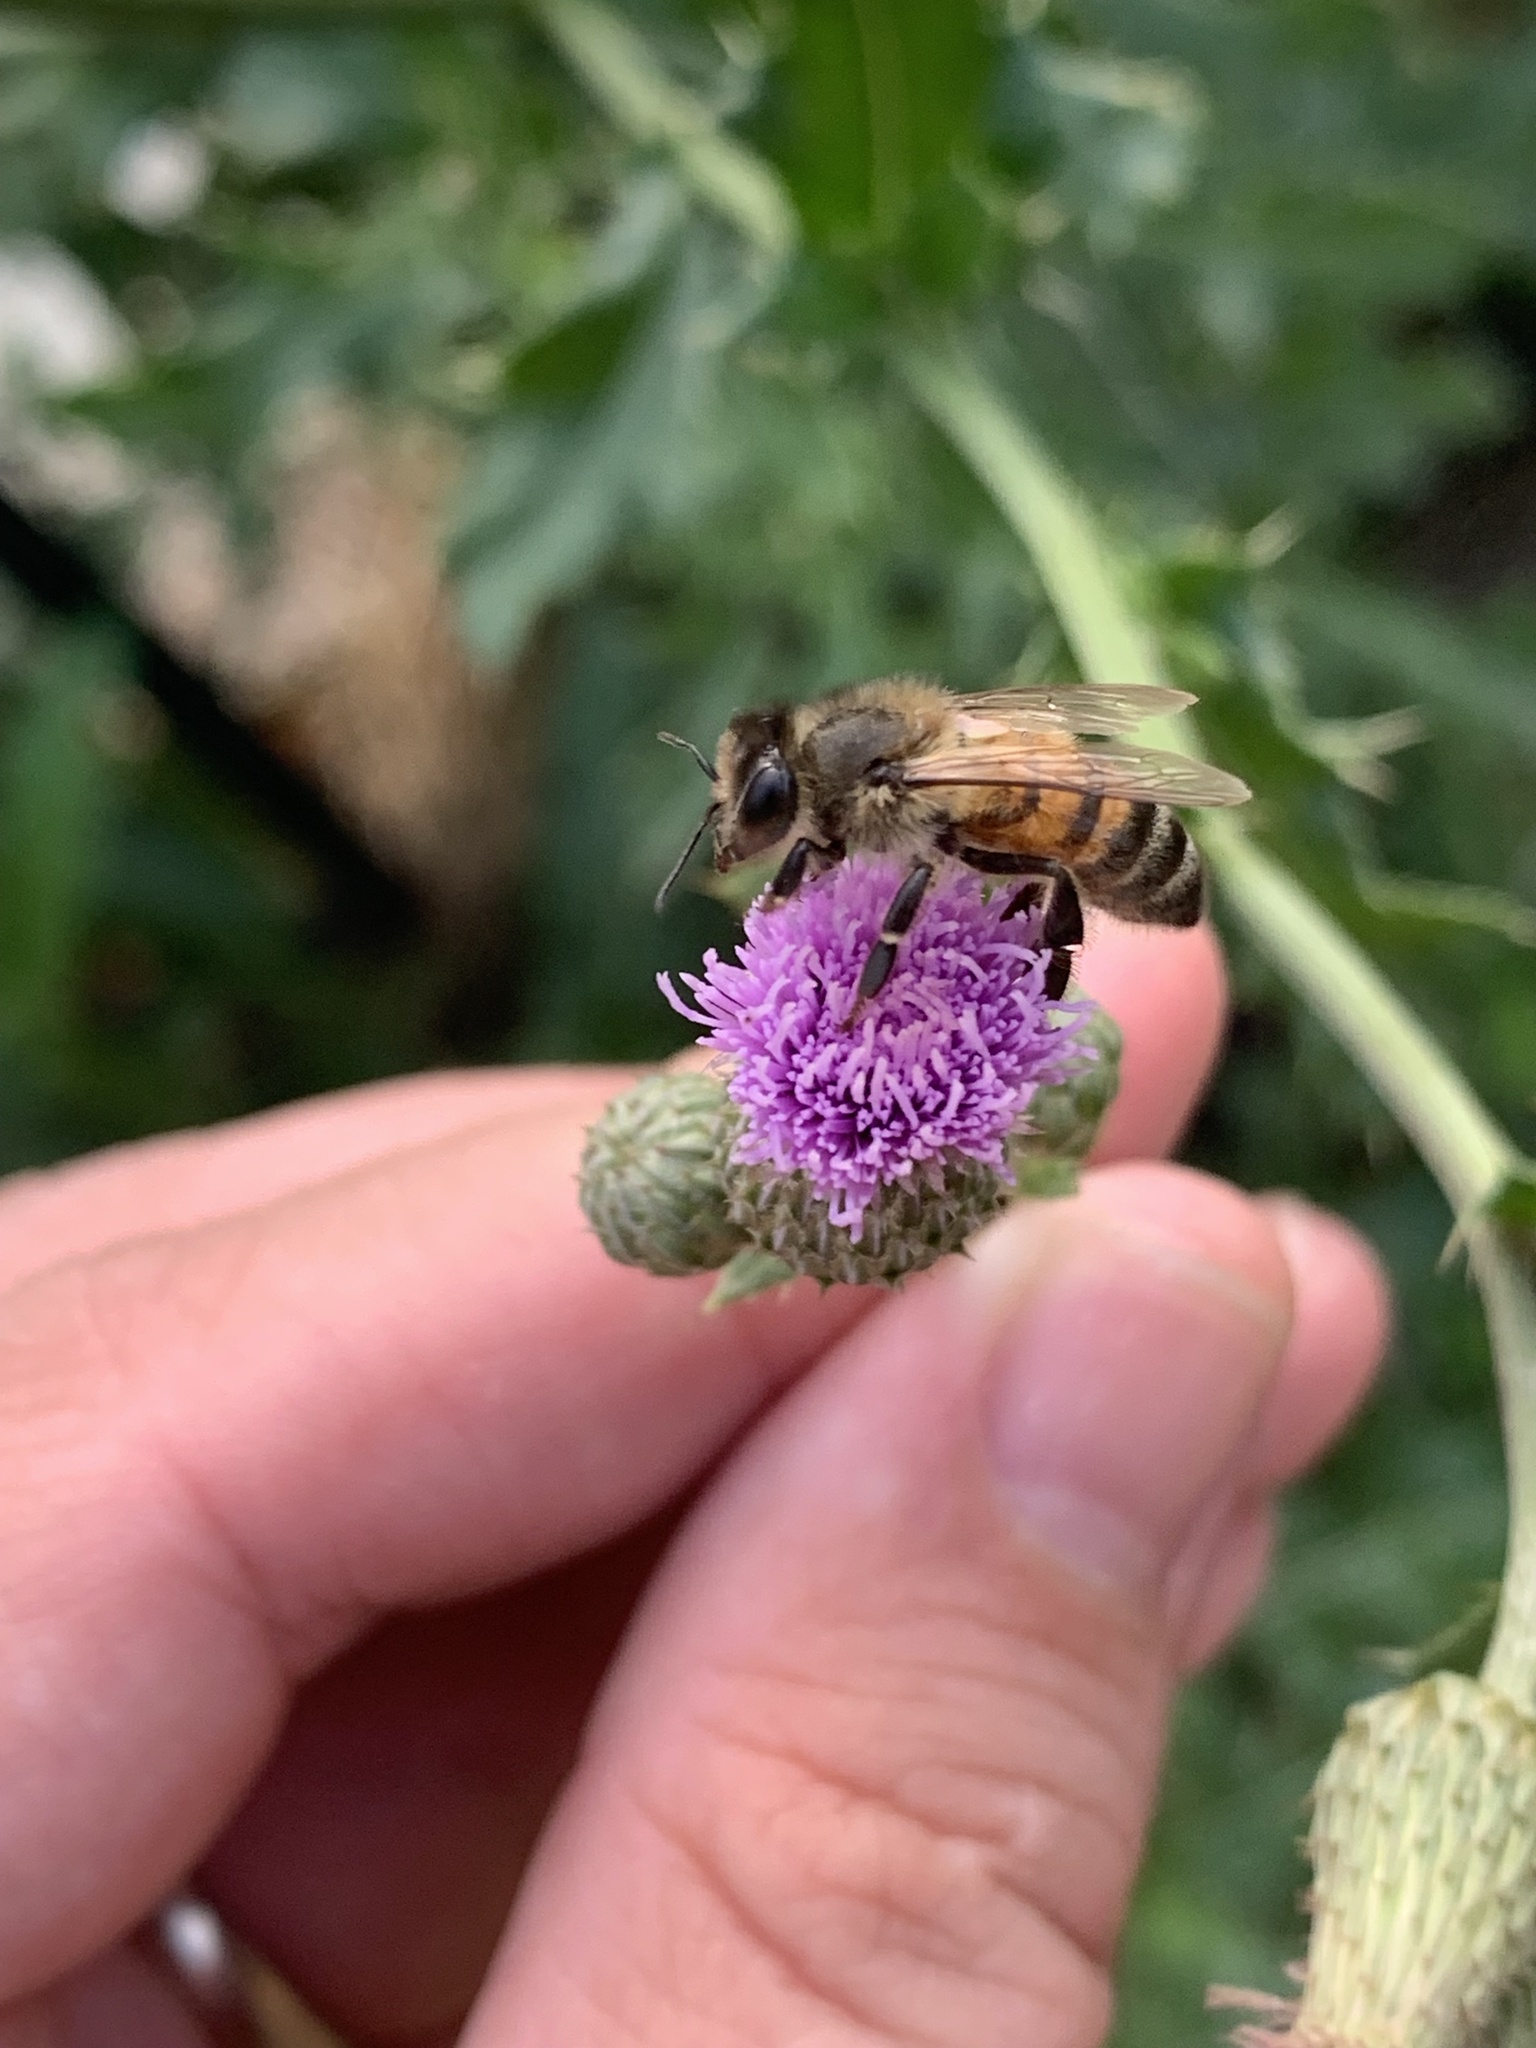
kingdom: Animalia
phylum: Arthropoda
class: Insecta
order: Hymenoptera
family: Apidae
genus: Apis
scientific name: Apis mellifera
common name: Honey bee
